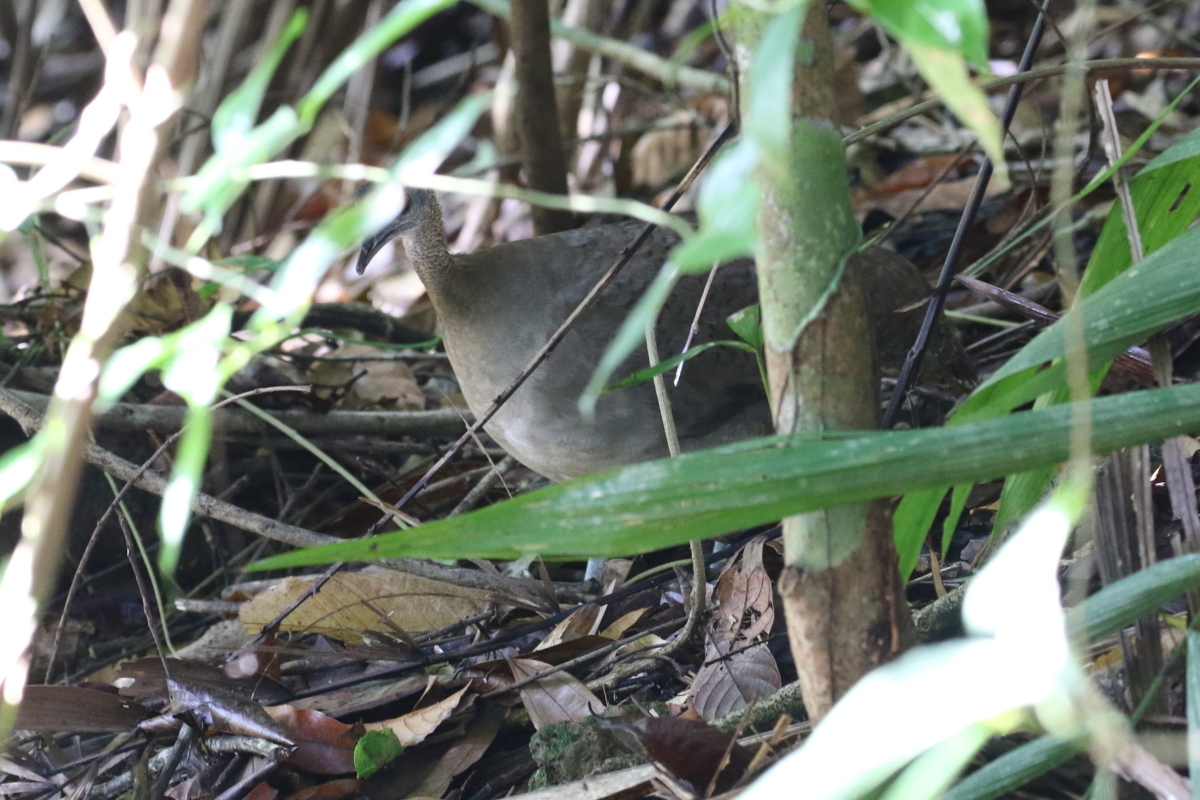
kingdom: Animalia
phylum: Chordata
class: Aves
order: Tinamiformes
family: Tinamidae
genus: Tinamus
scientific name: Tinamus major
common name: Great tinamou
